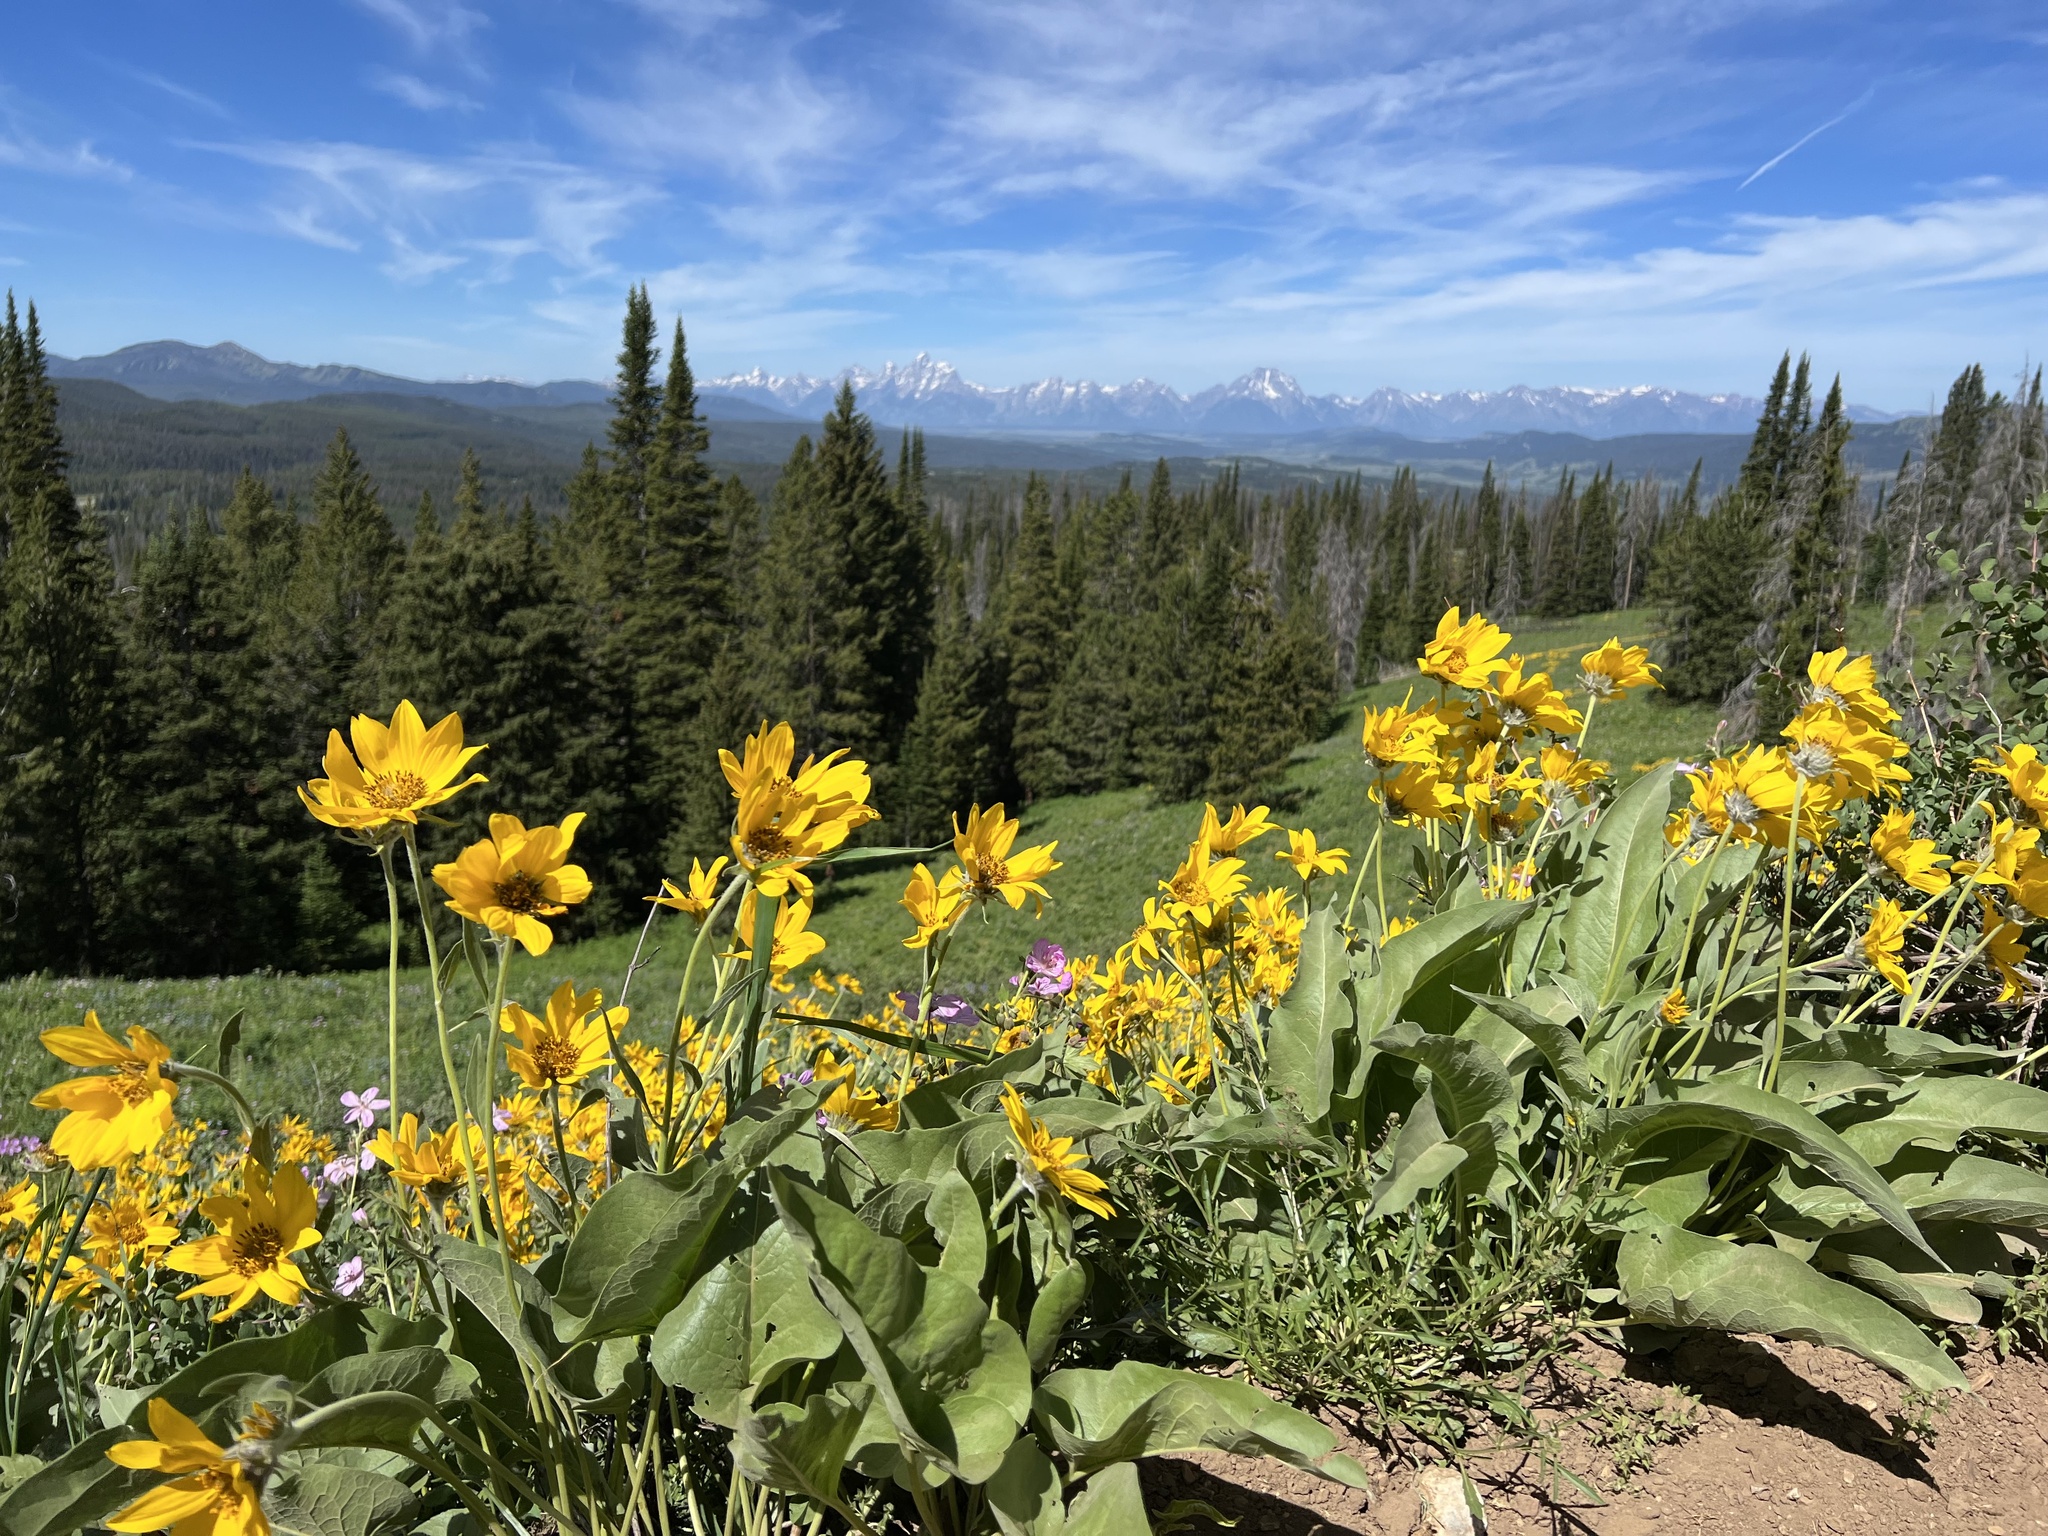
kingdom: Plantae
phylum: Tracheophyta
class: Magnoliopsida
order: Asterales
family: Asteraceae
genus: Wyethia
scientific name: Wyethia sagittata
